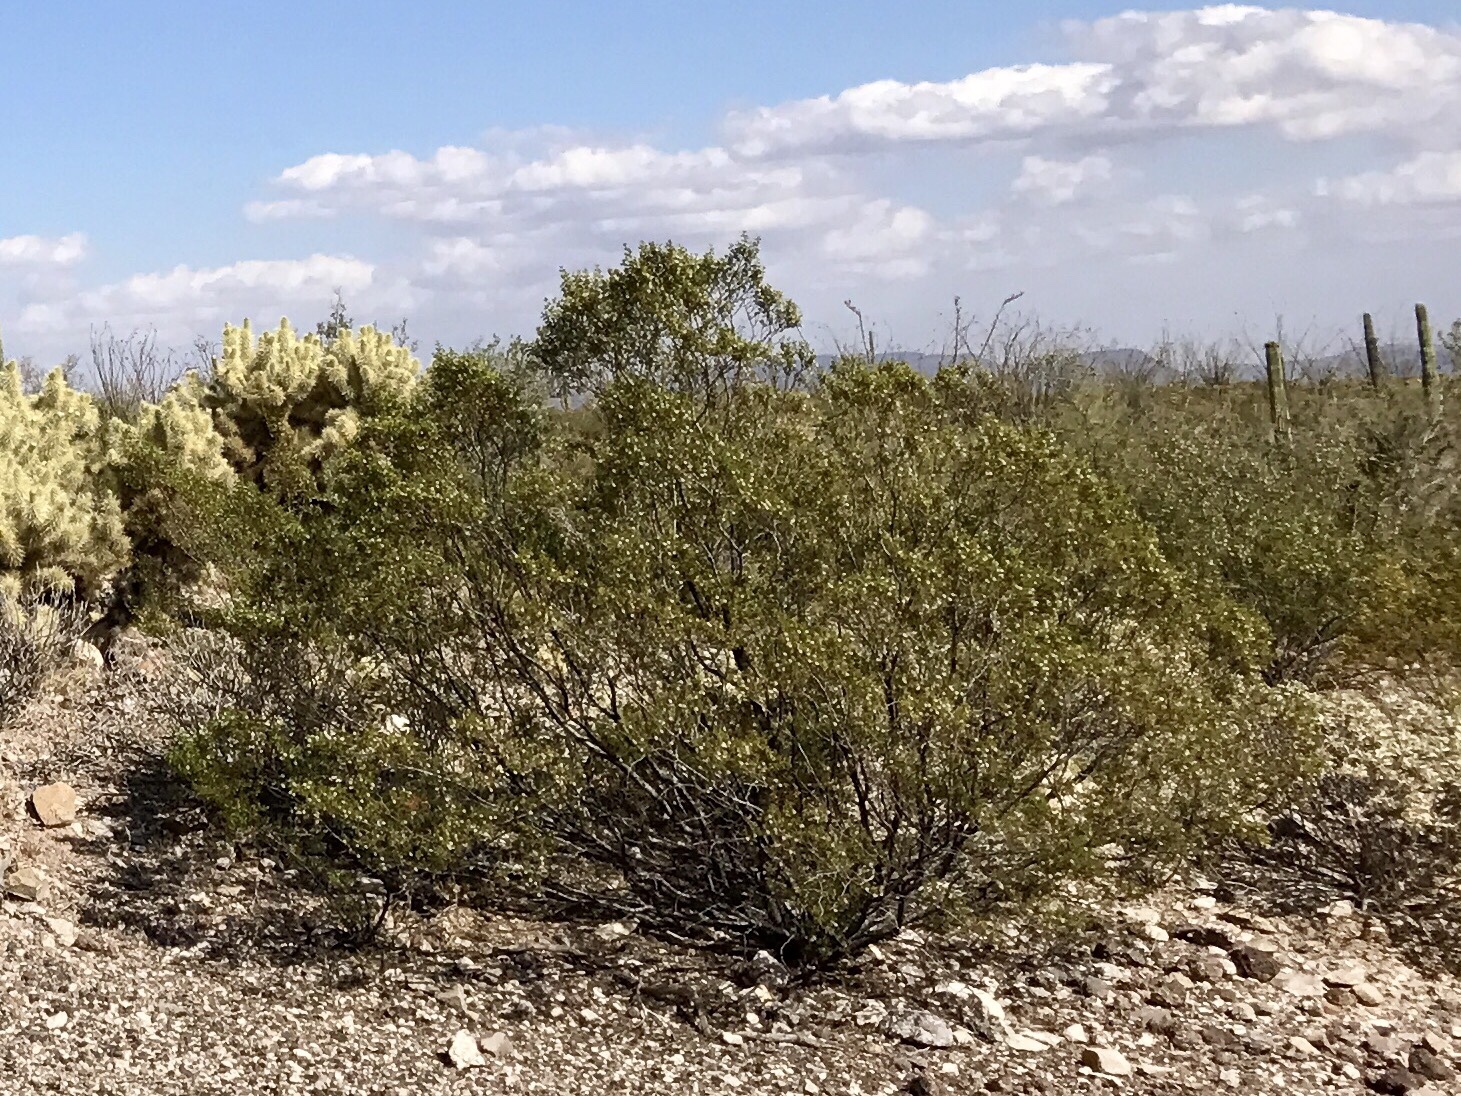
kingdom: Plantae
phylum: Tracheophyta
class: Magnoliopsida
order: Zygophyllales
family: Zygophyllaceae
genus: Larrea
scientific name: Larrea tridentata
